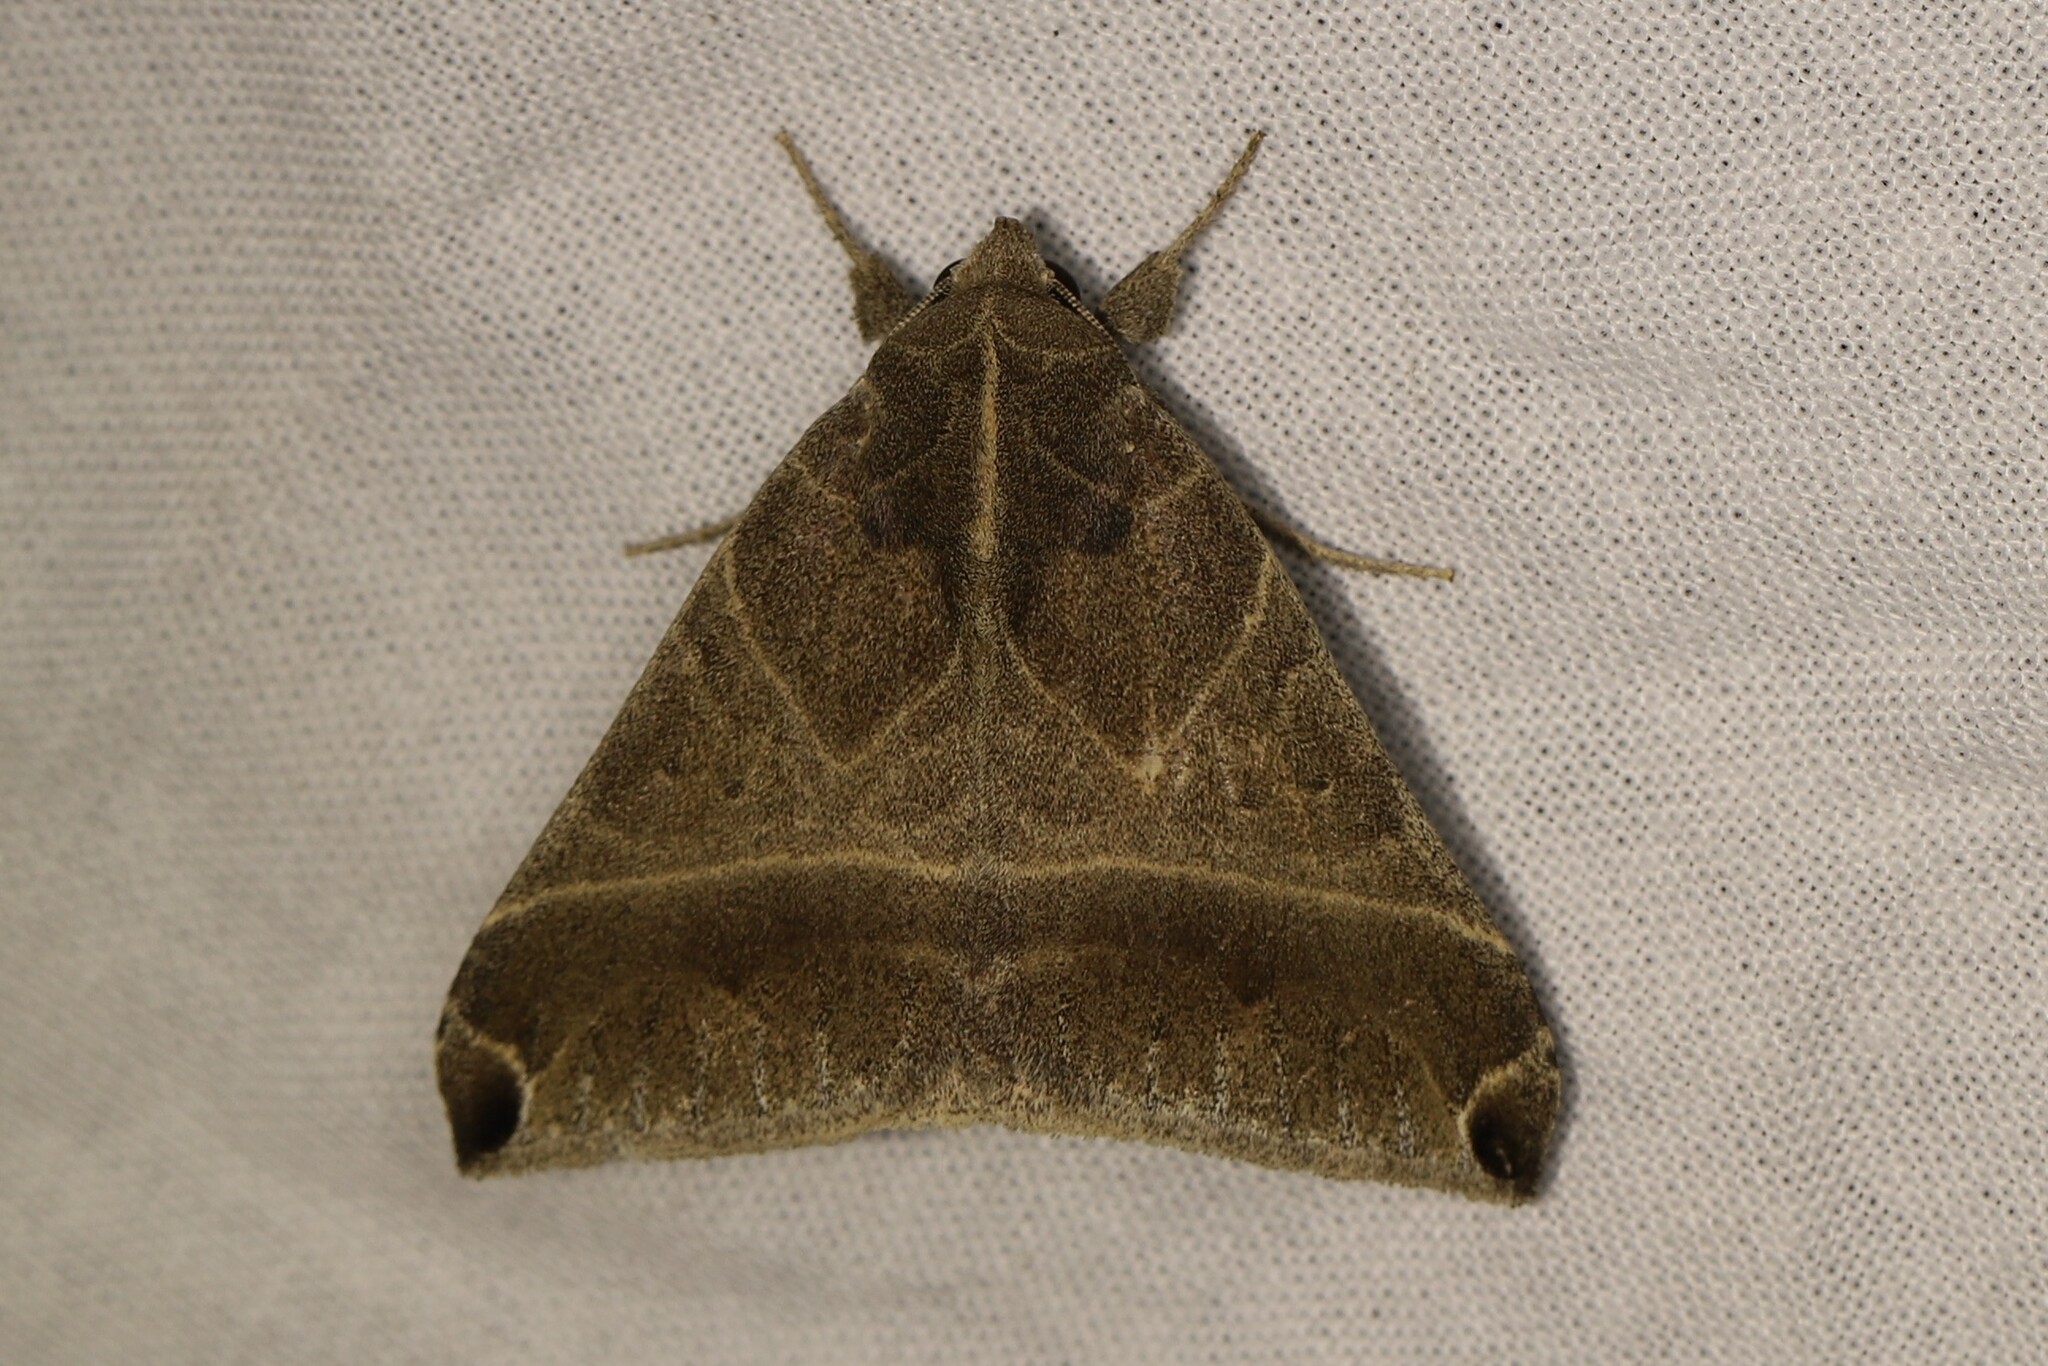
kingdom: Animalia
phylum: Arthropoda
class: Insecta
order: Lepidoptera
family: Erebidae
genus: Neophisma
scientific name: Neophisma sinuata
